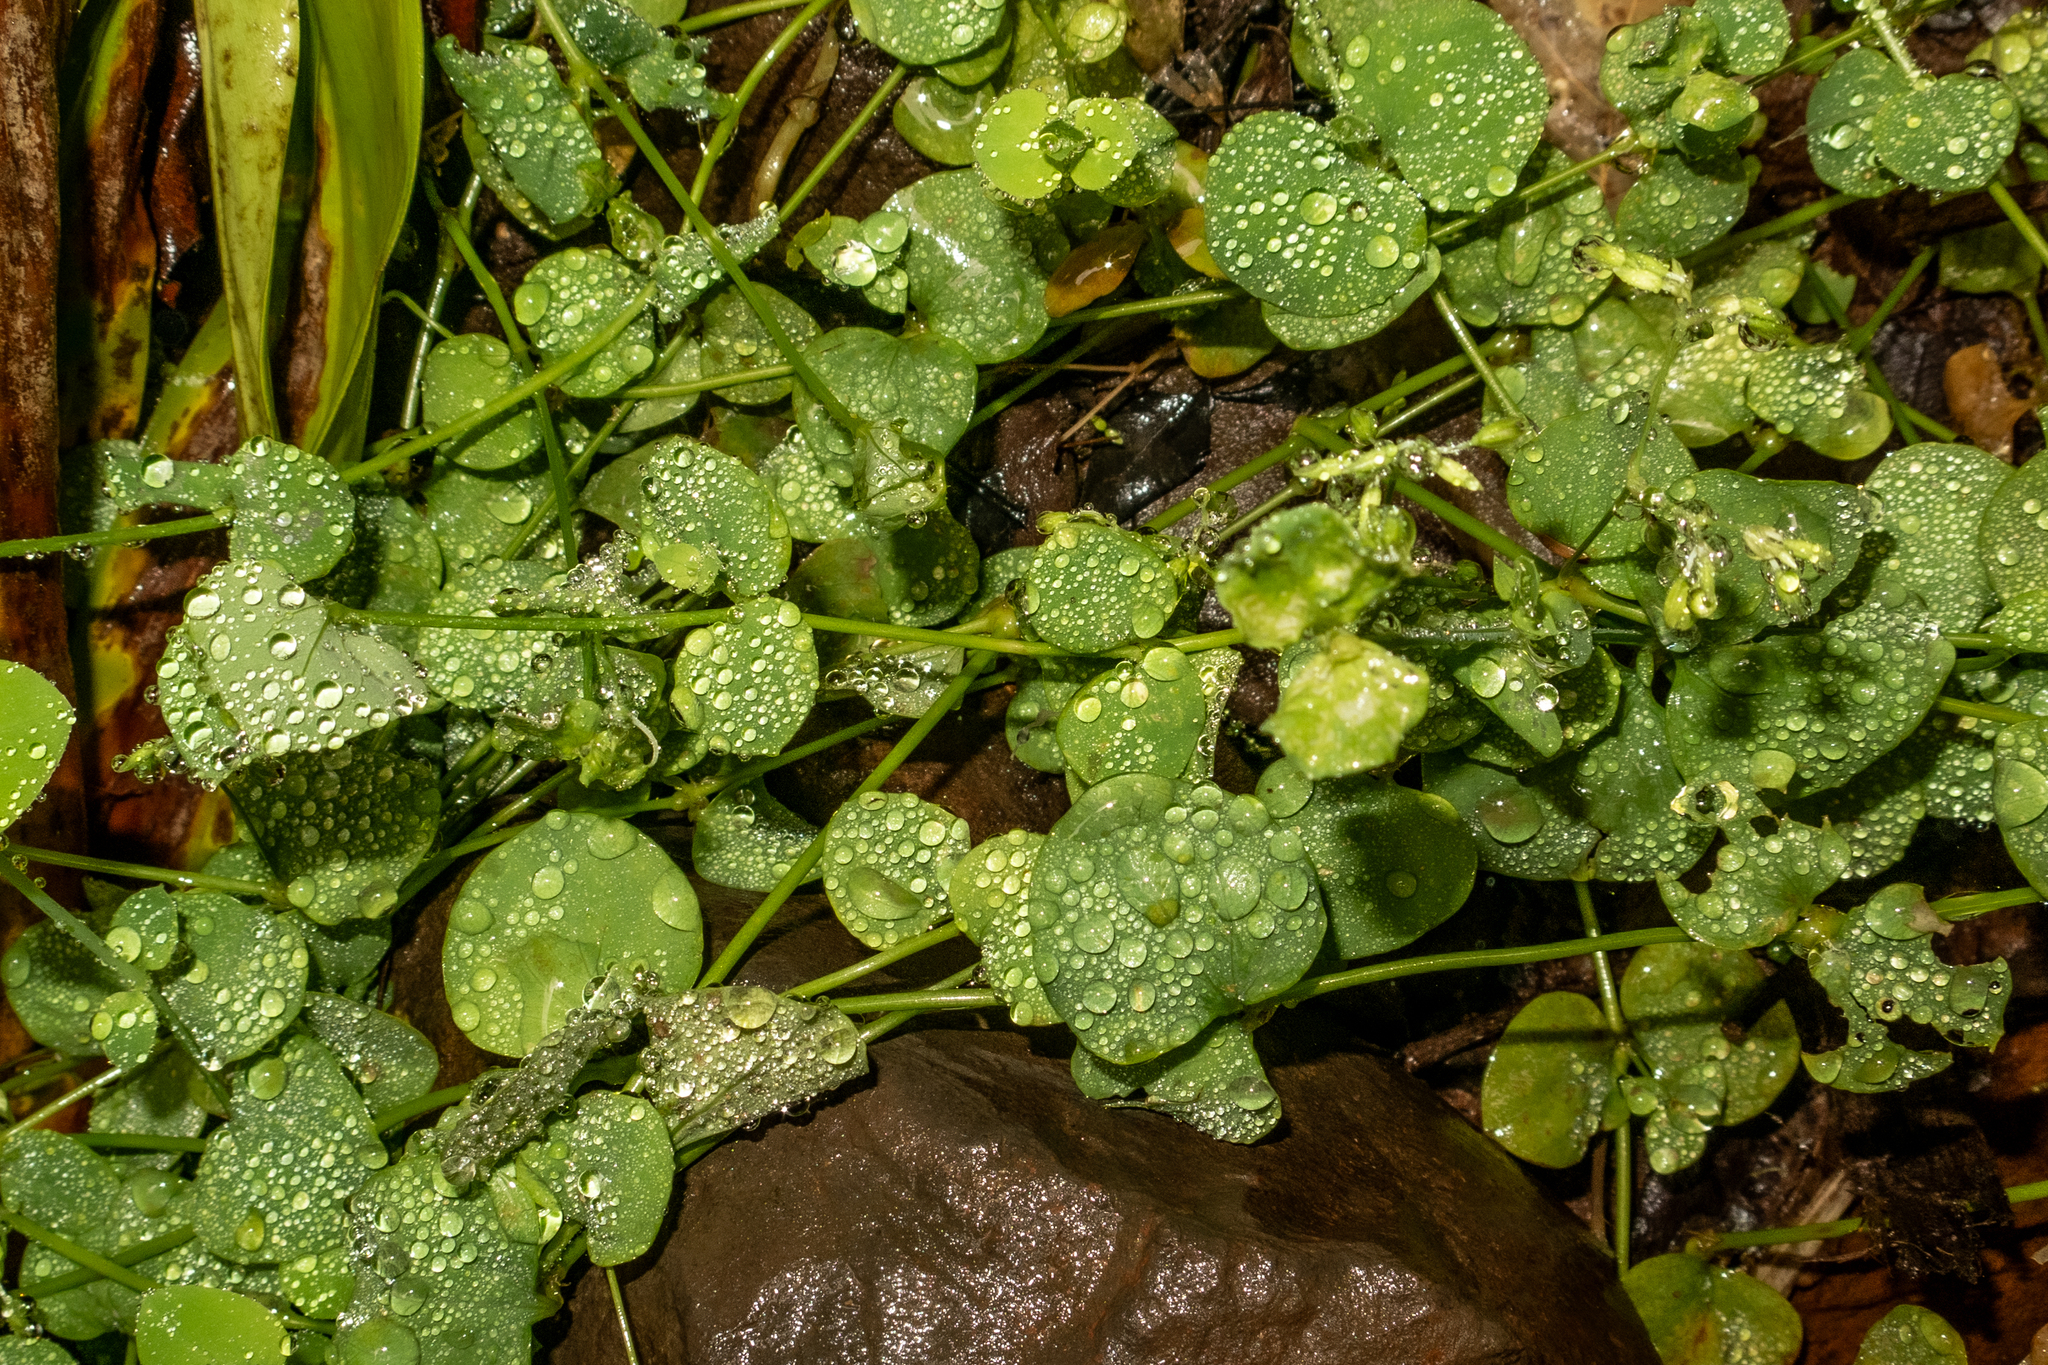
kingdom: Plantae
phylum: Tracheophyta
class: Magnoliopsida
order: Caryophyllales
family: Caryophyllaceae
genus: Drymaria
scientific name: Drymaria cordata
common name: Whitesnow
